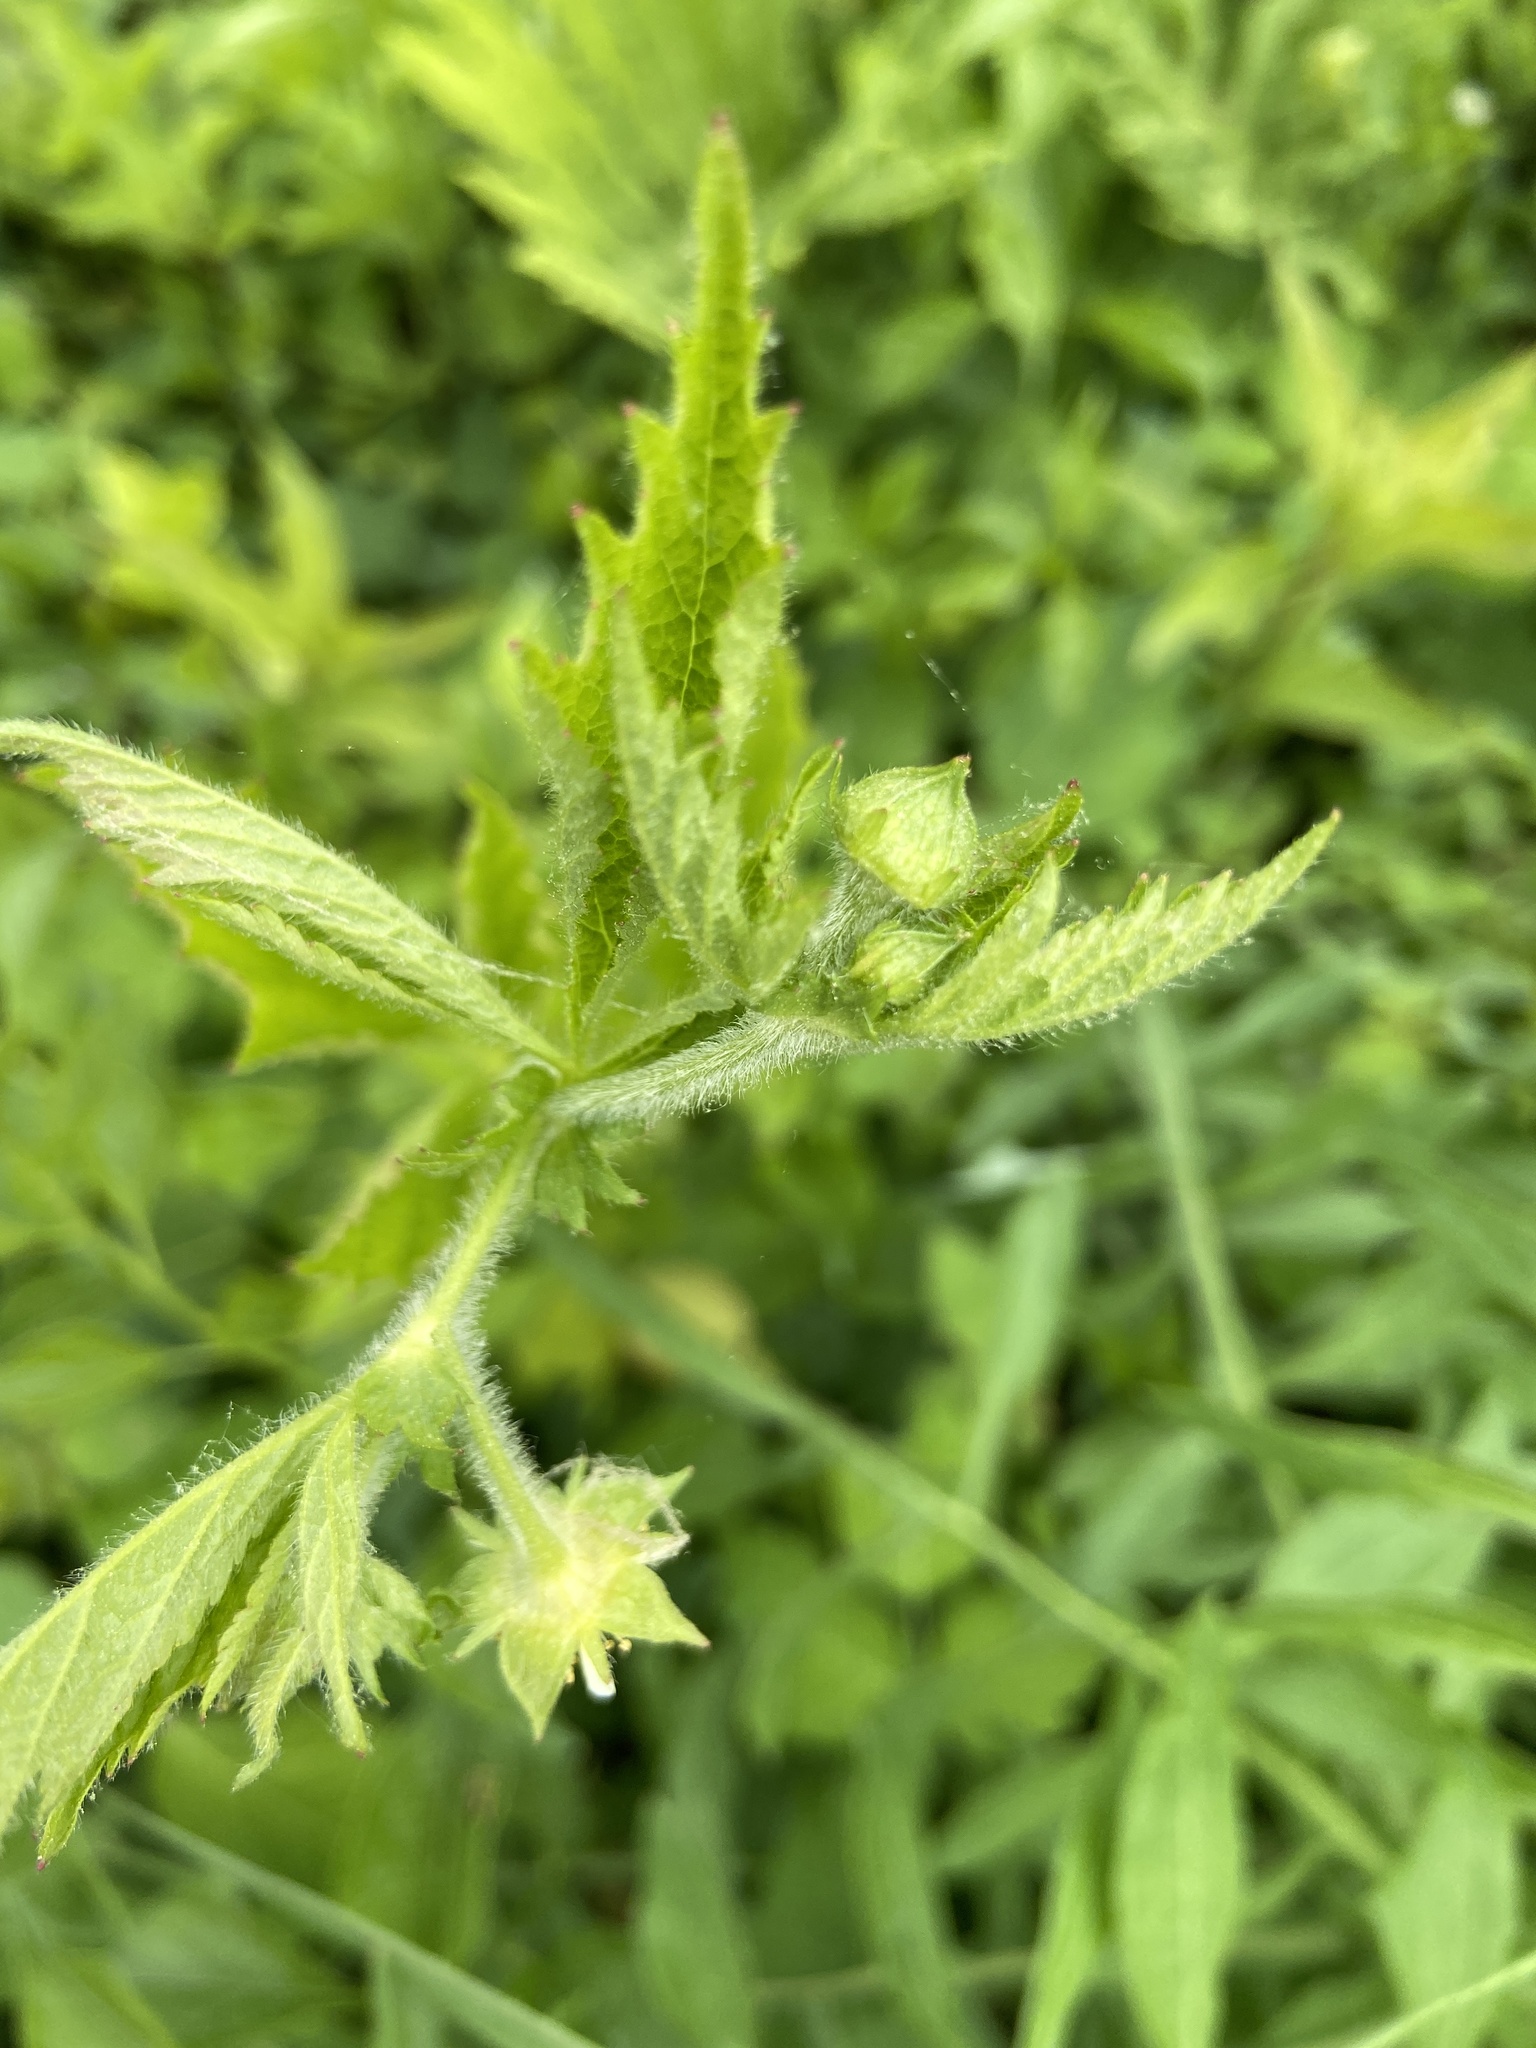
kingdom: Plantae
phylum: Tracheophyta
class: Magnoliopsida
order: Rosales
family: Rosaceae
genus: Geum
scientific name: Geum laciniatum
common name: Rough avens
